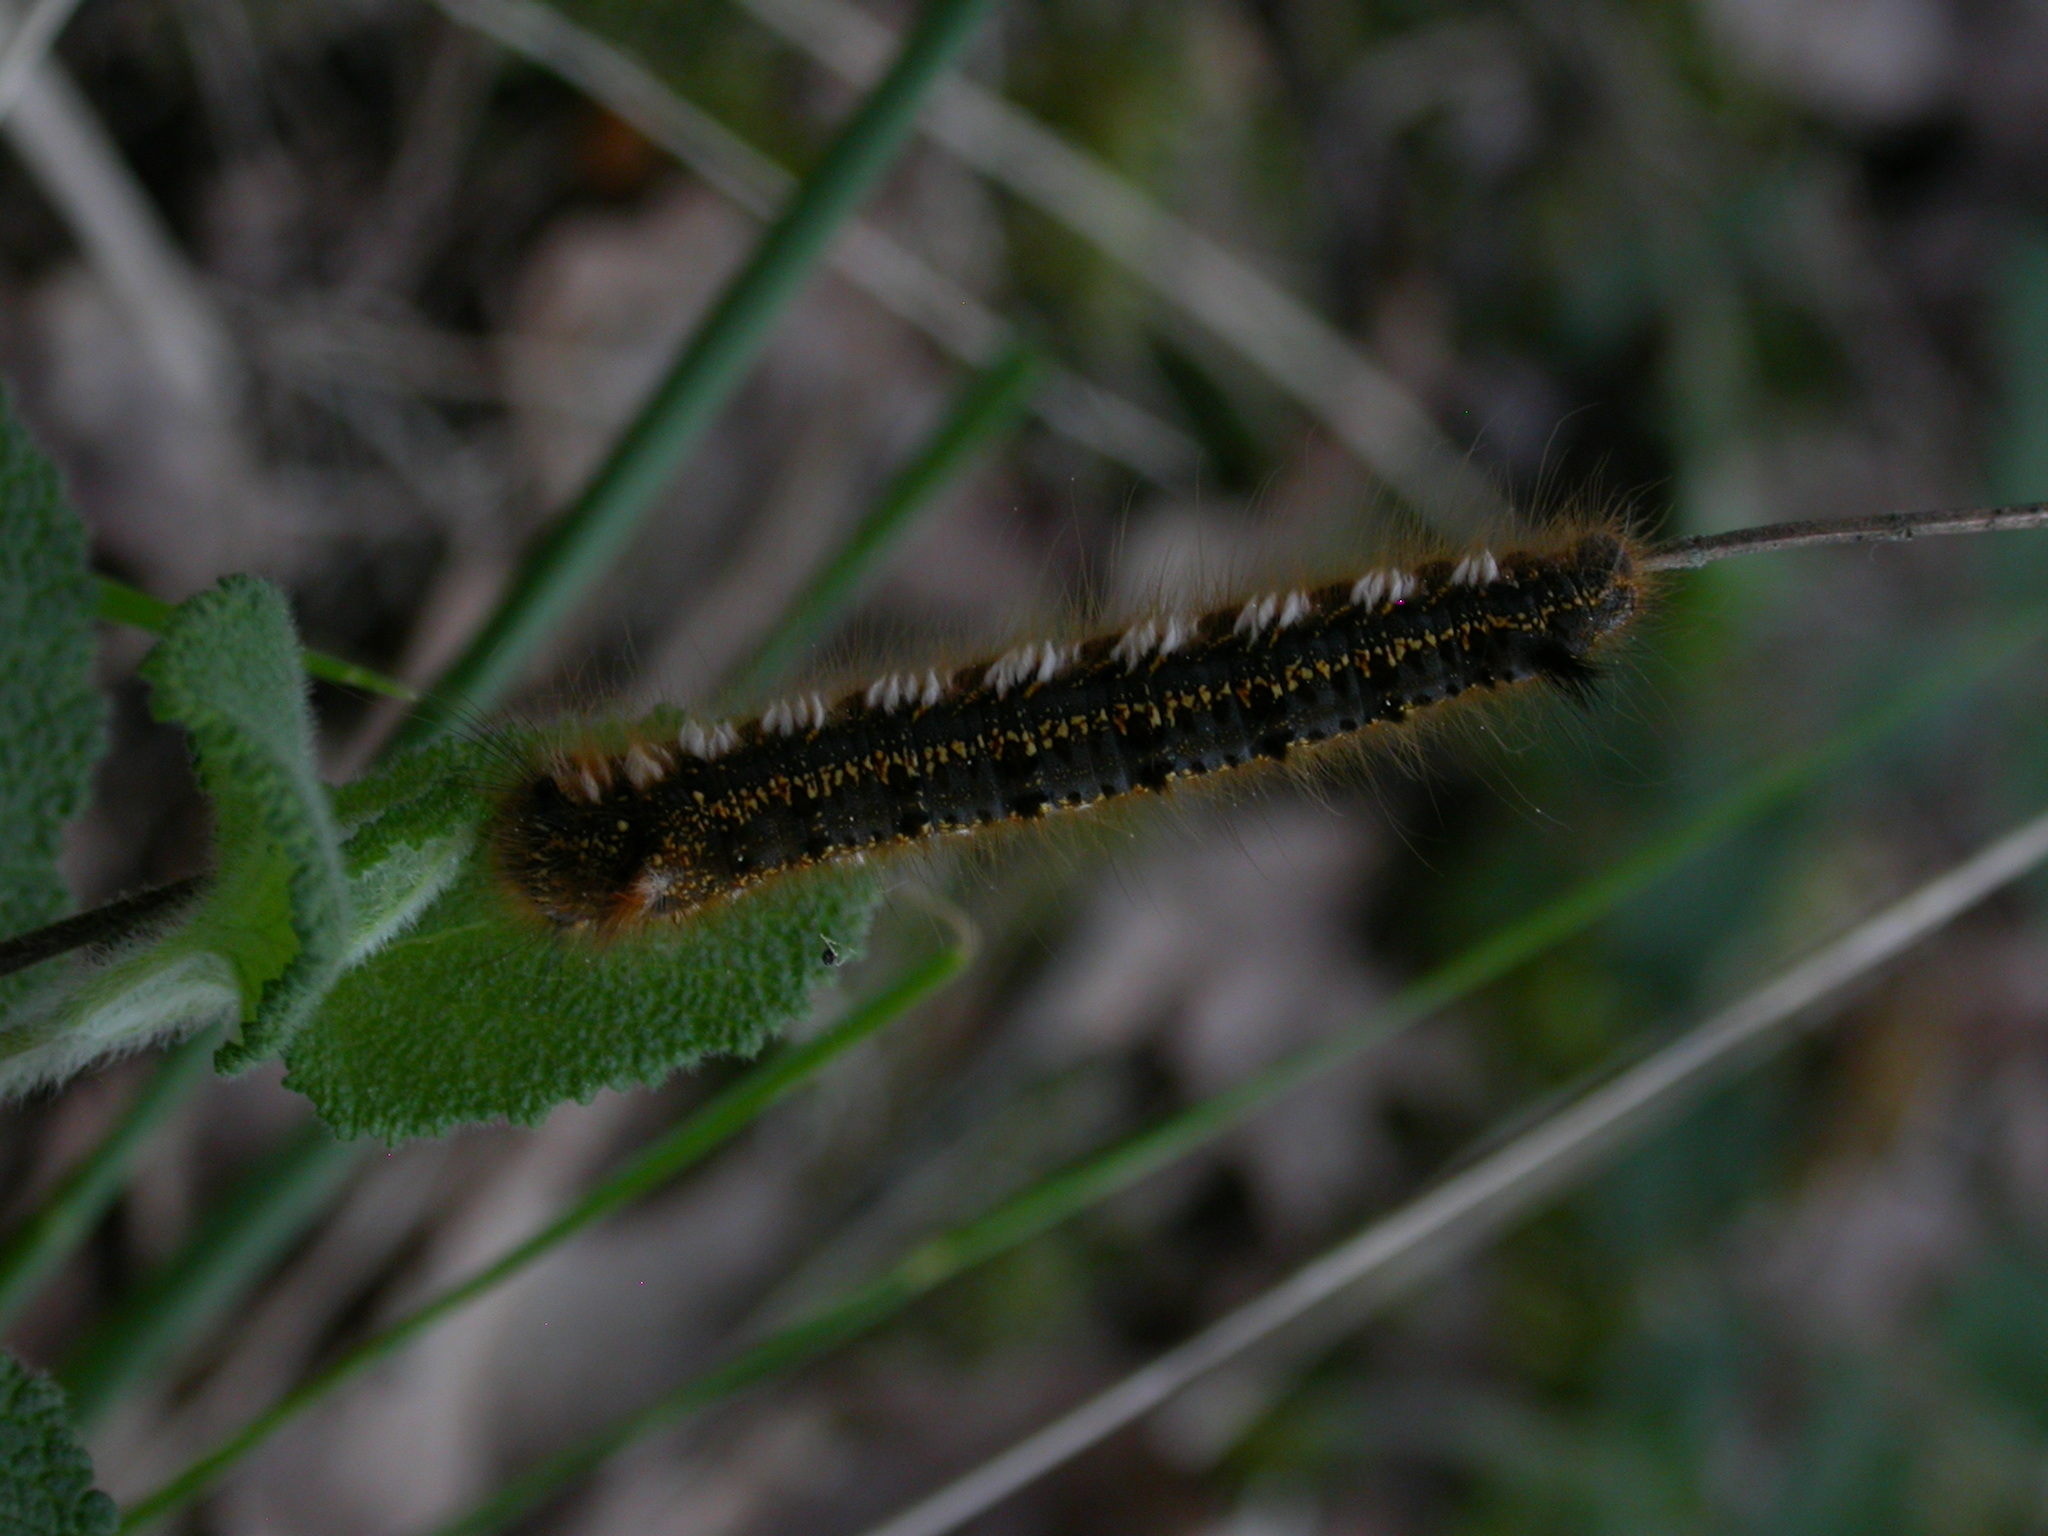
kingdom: Animalia
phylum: Arthropoda
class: Insecta
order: Lepidoptera
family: Lasiocampidae
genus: Euthrix
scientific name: Euthrix potatoria
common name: Drinker
